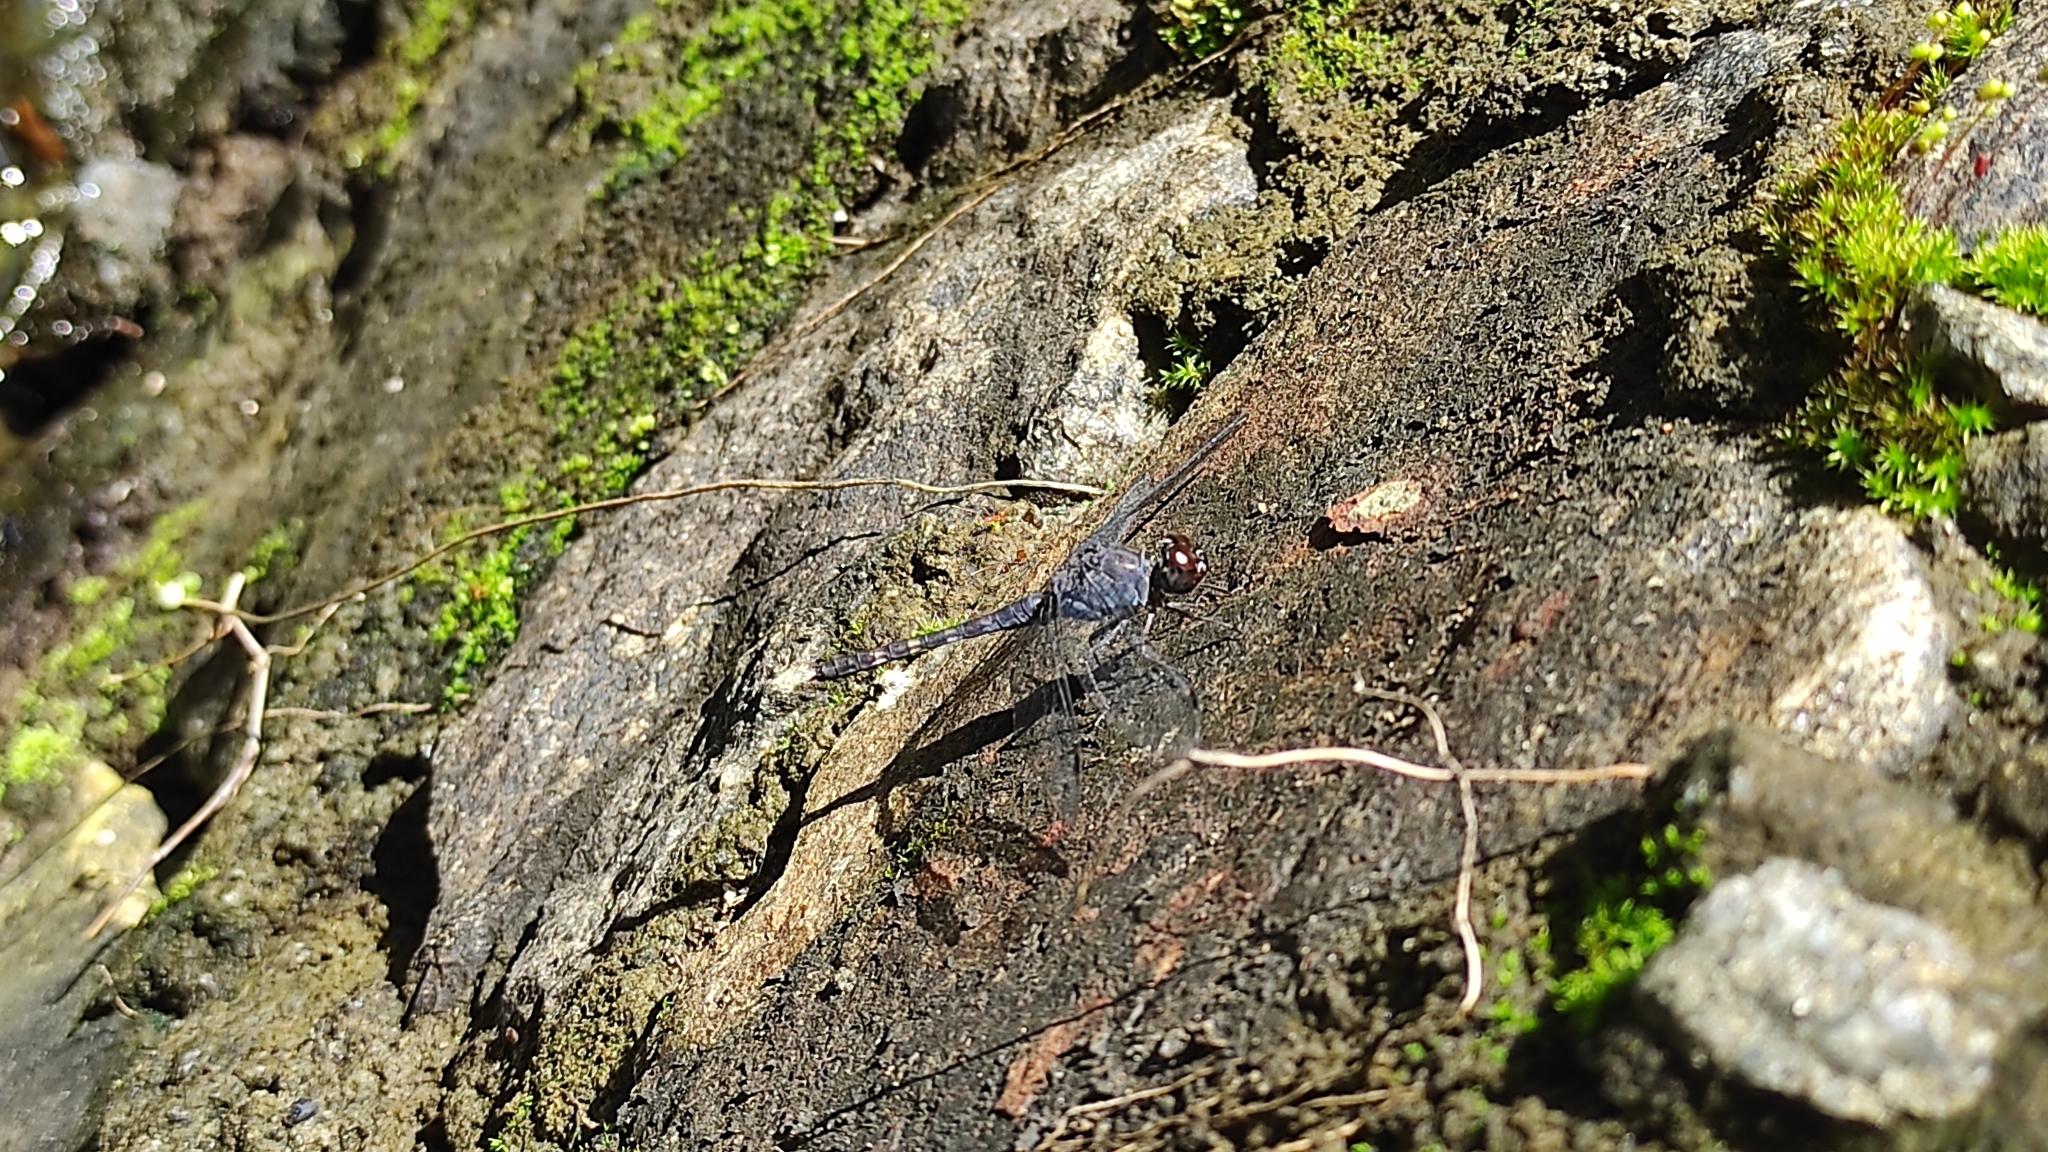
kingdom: Animalia
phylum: Arthropoda
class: Insecta
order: Odonata
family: Libellulidae
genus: Bradinopyga
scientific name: Bradinopyga geminata
